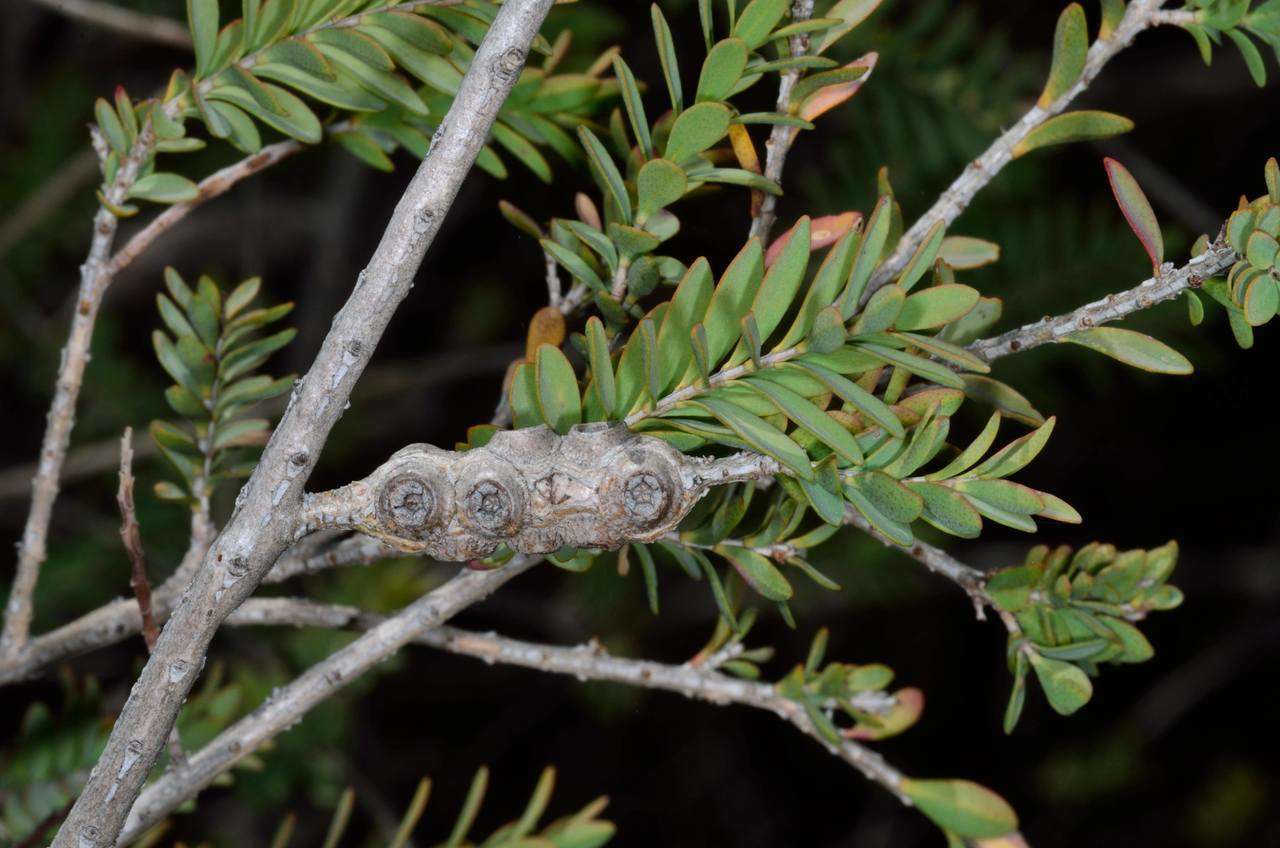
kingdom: Plantae
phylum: Tracheophyta
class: Magnoliopsida
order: Myrtales
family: Myrtaceae
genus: Melaleuca
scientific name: Melaleuca decussata
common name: Cross-leaf honey myrtle
